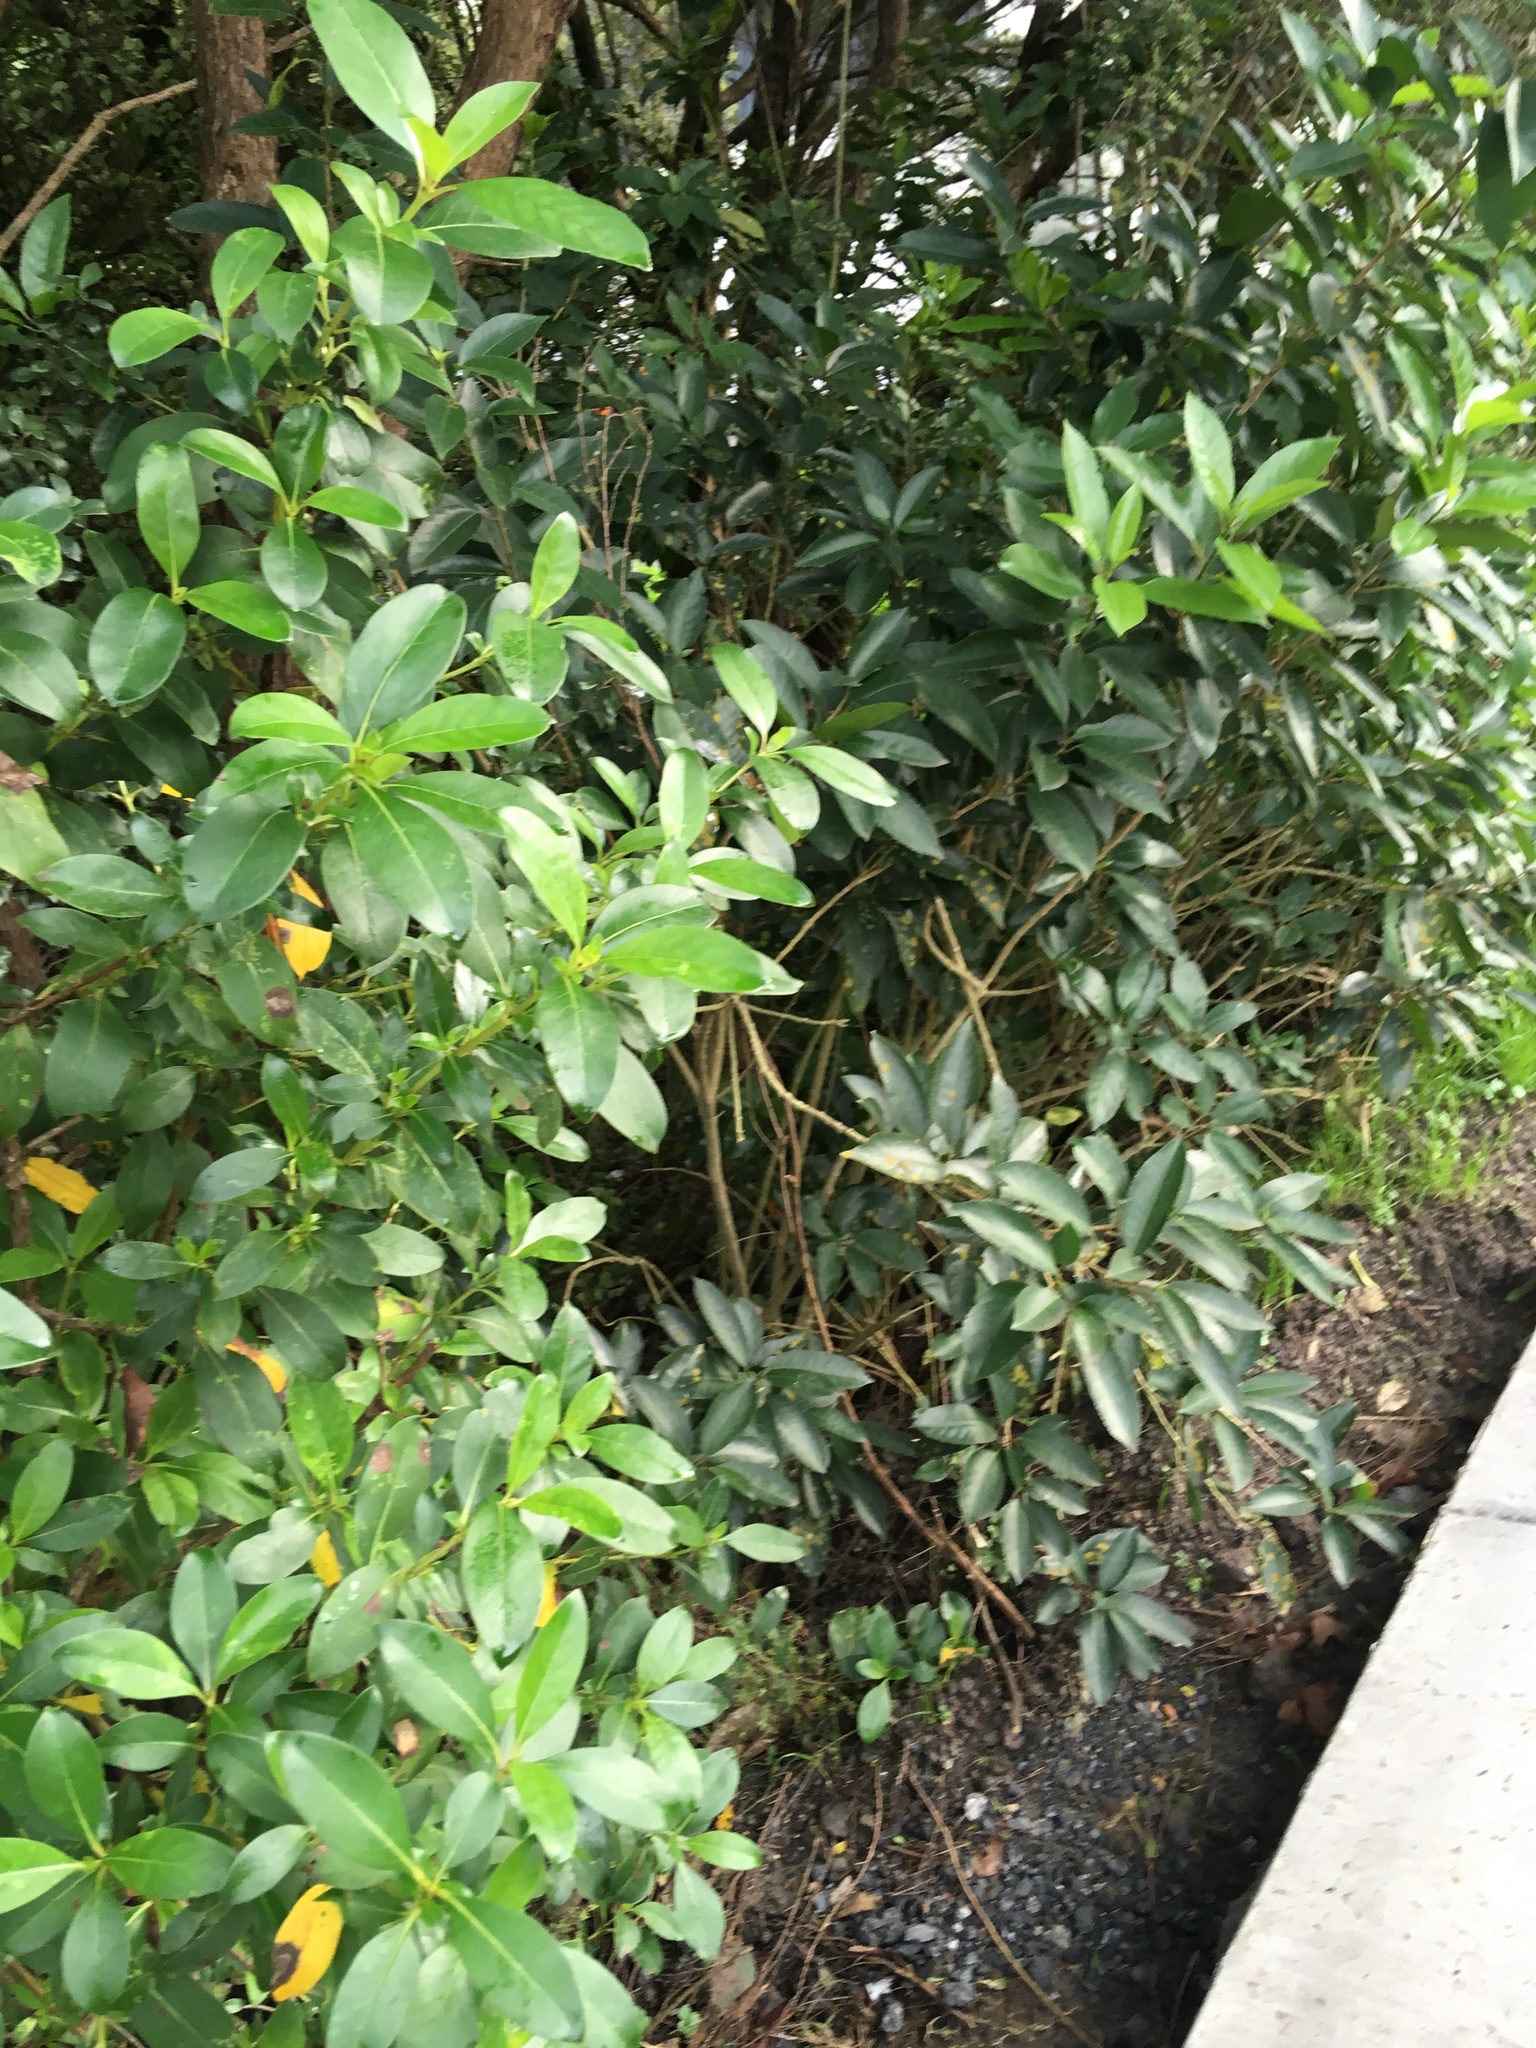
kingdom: Plantae
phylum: Tracheophyta
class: Magnoliopsida
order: Gentianales
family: Rubiaceae
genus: Coprosma
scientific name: Coprosma robusta
